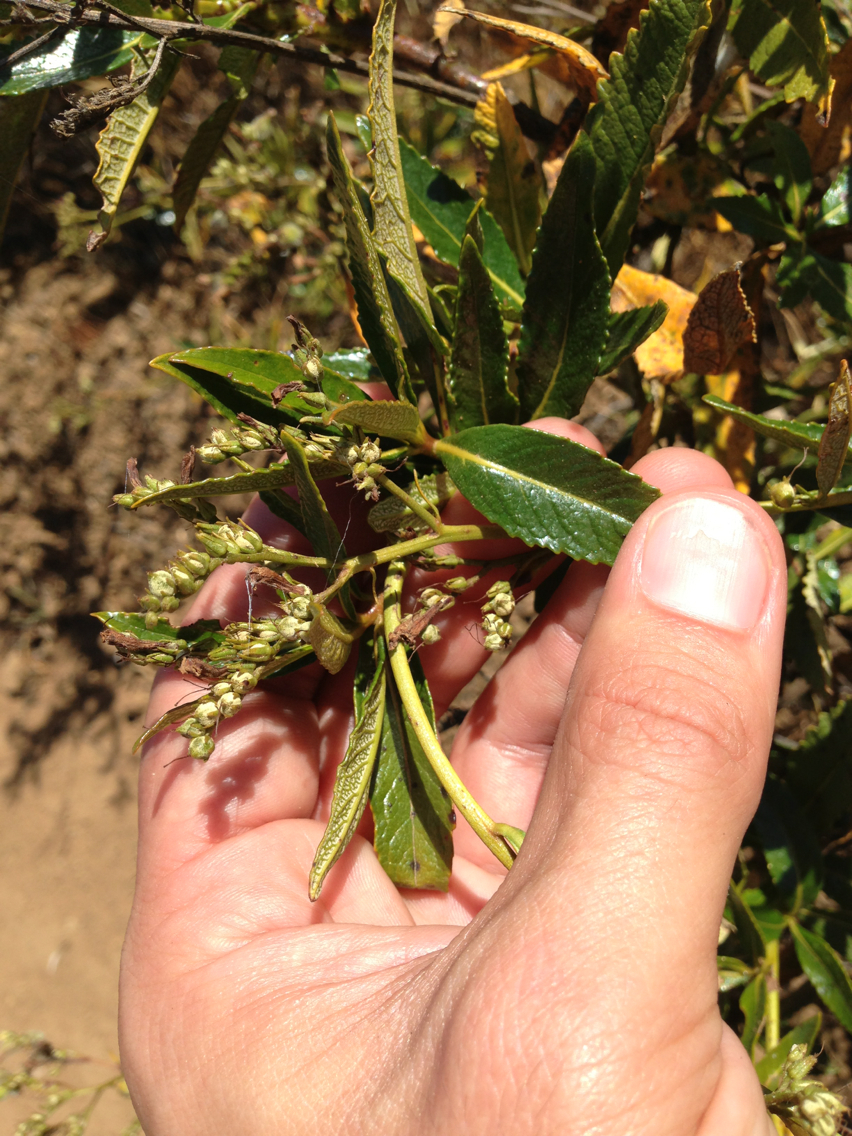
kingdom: Plantae
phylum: Tracheophyta
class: Magnoliopsida
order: Boraginales
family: Namaceae
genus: Eriodictyon
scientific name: Eriodictyon californicum
